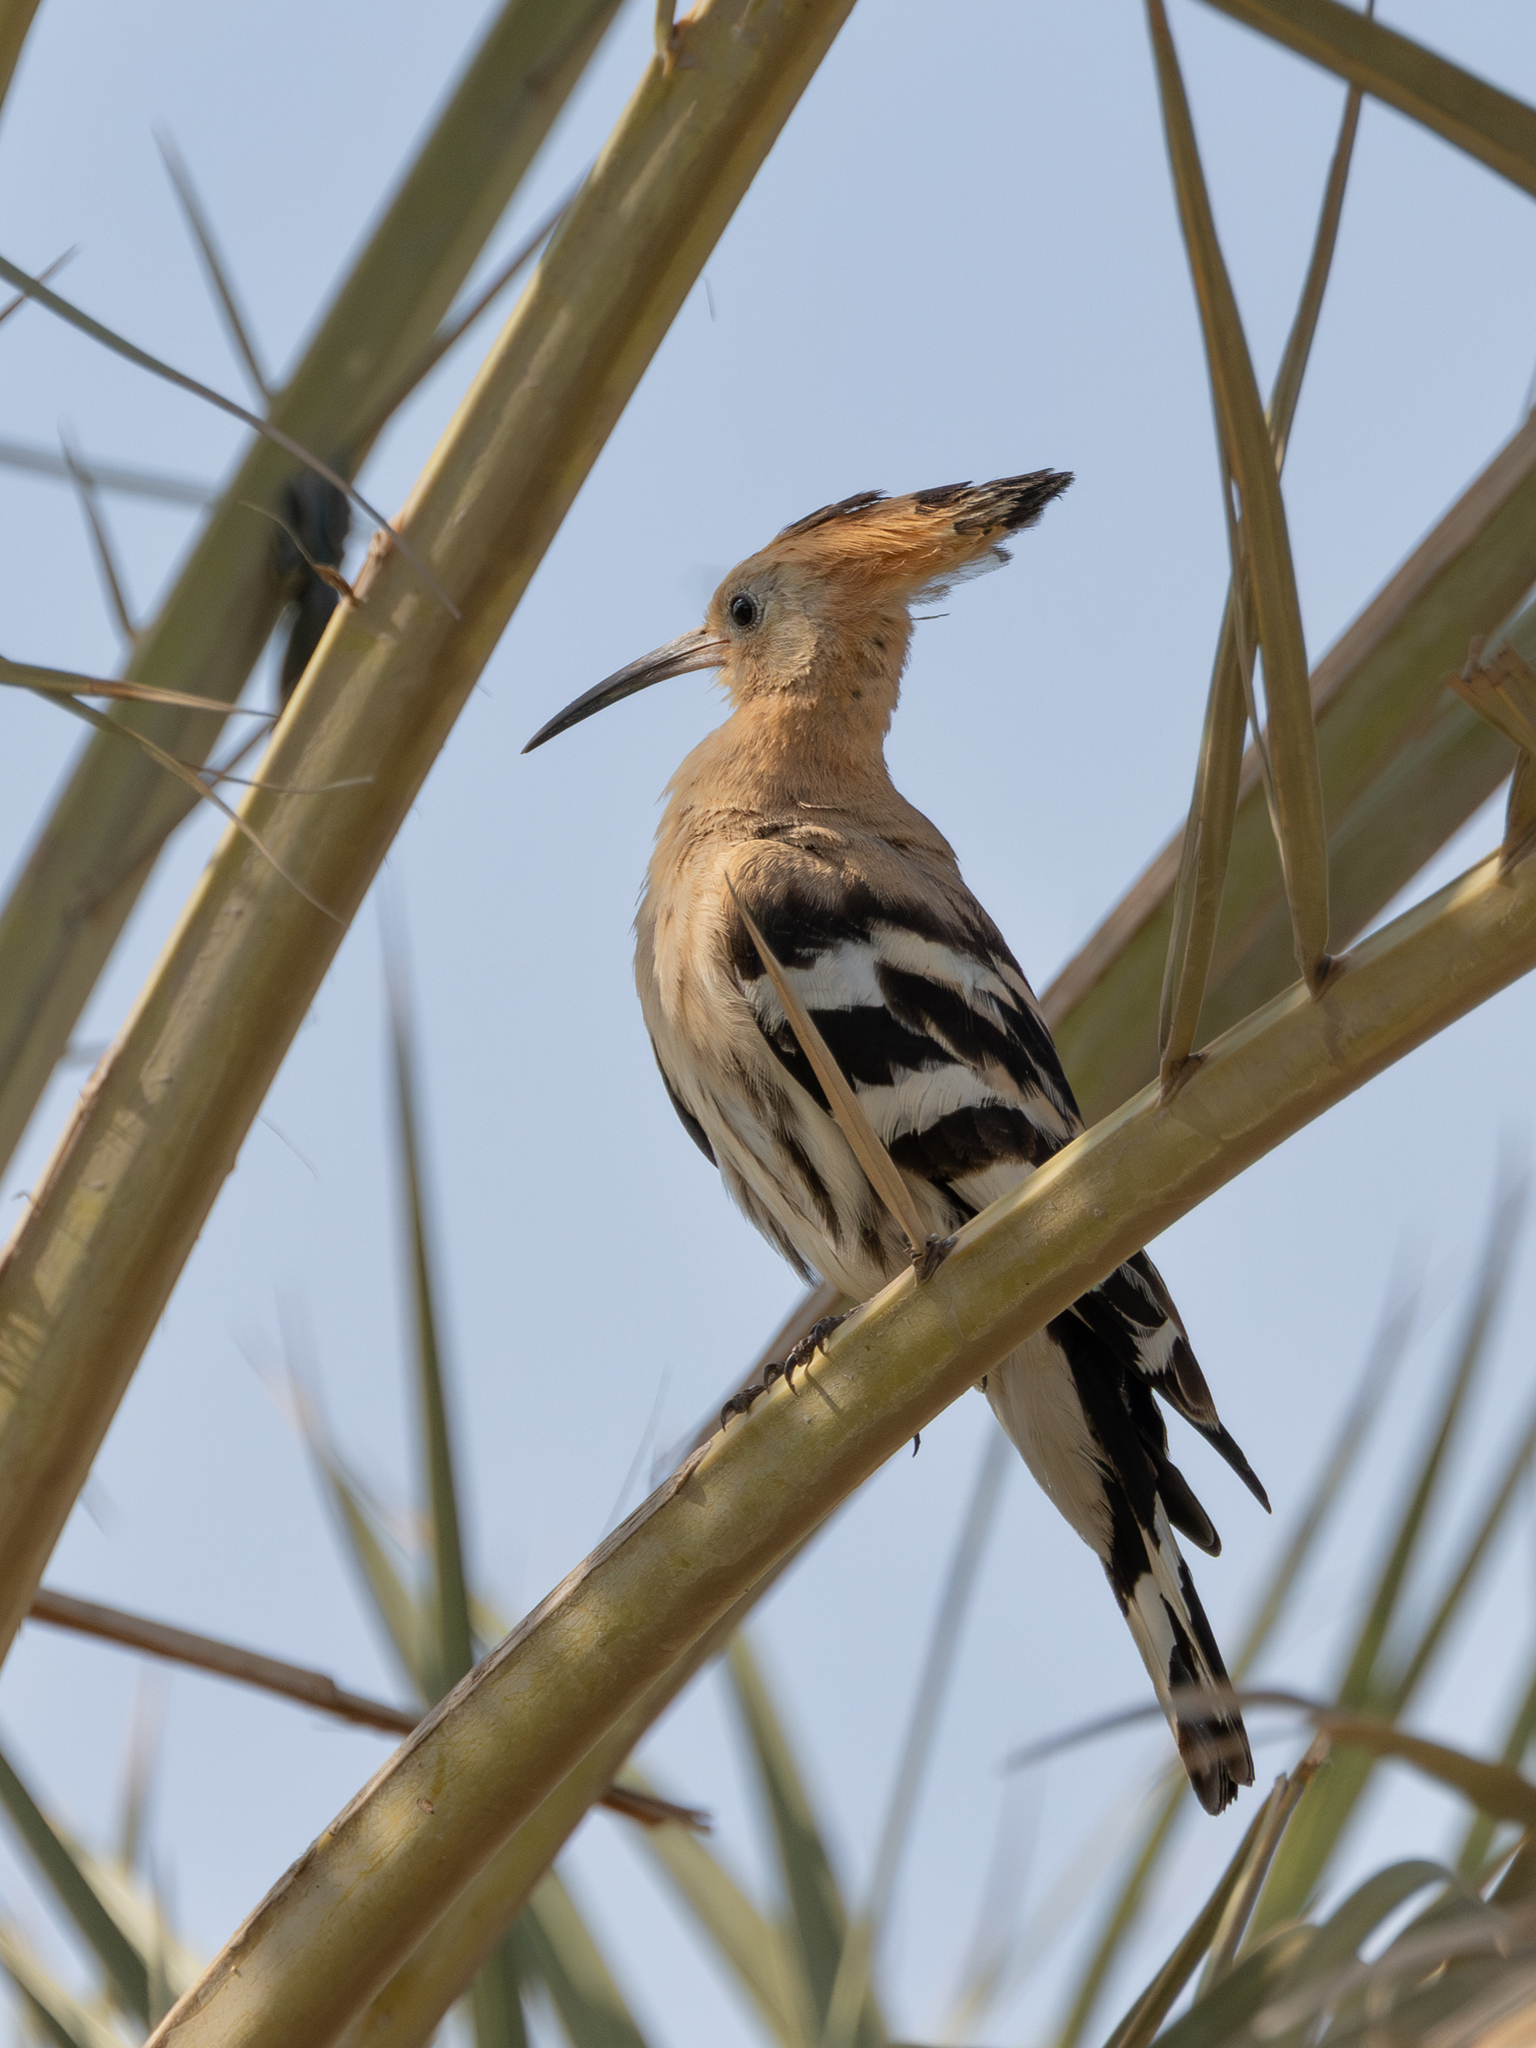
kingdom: Animalia
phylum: Chordata
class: Aves
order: Bucerotiformes
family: Upupidae
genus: Upupa
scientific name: Upupa epops
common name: Eurasian hoopoe
